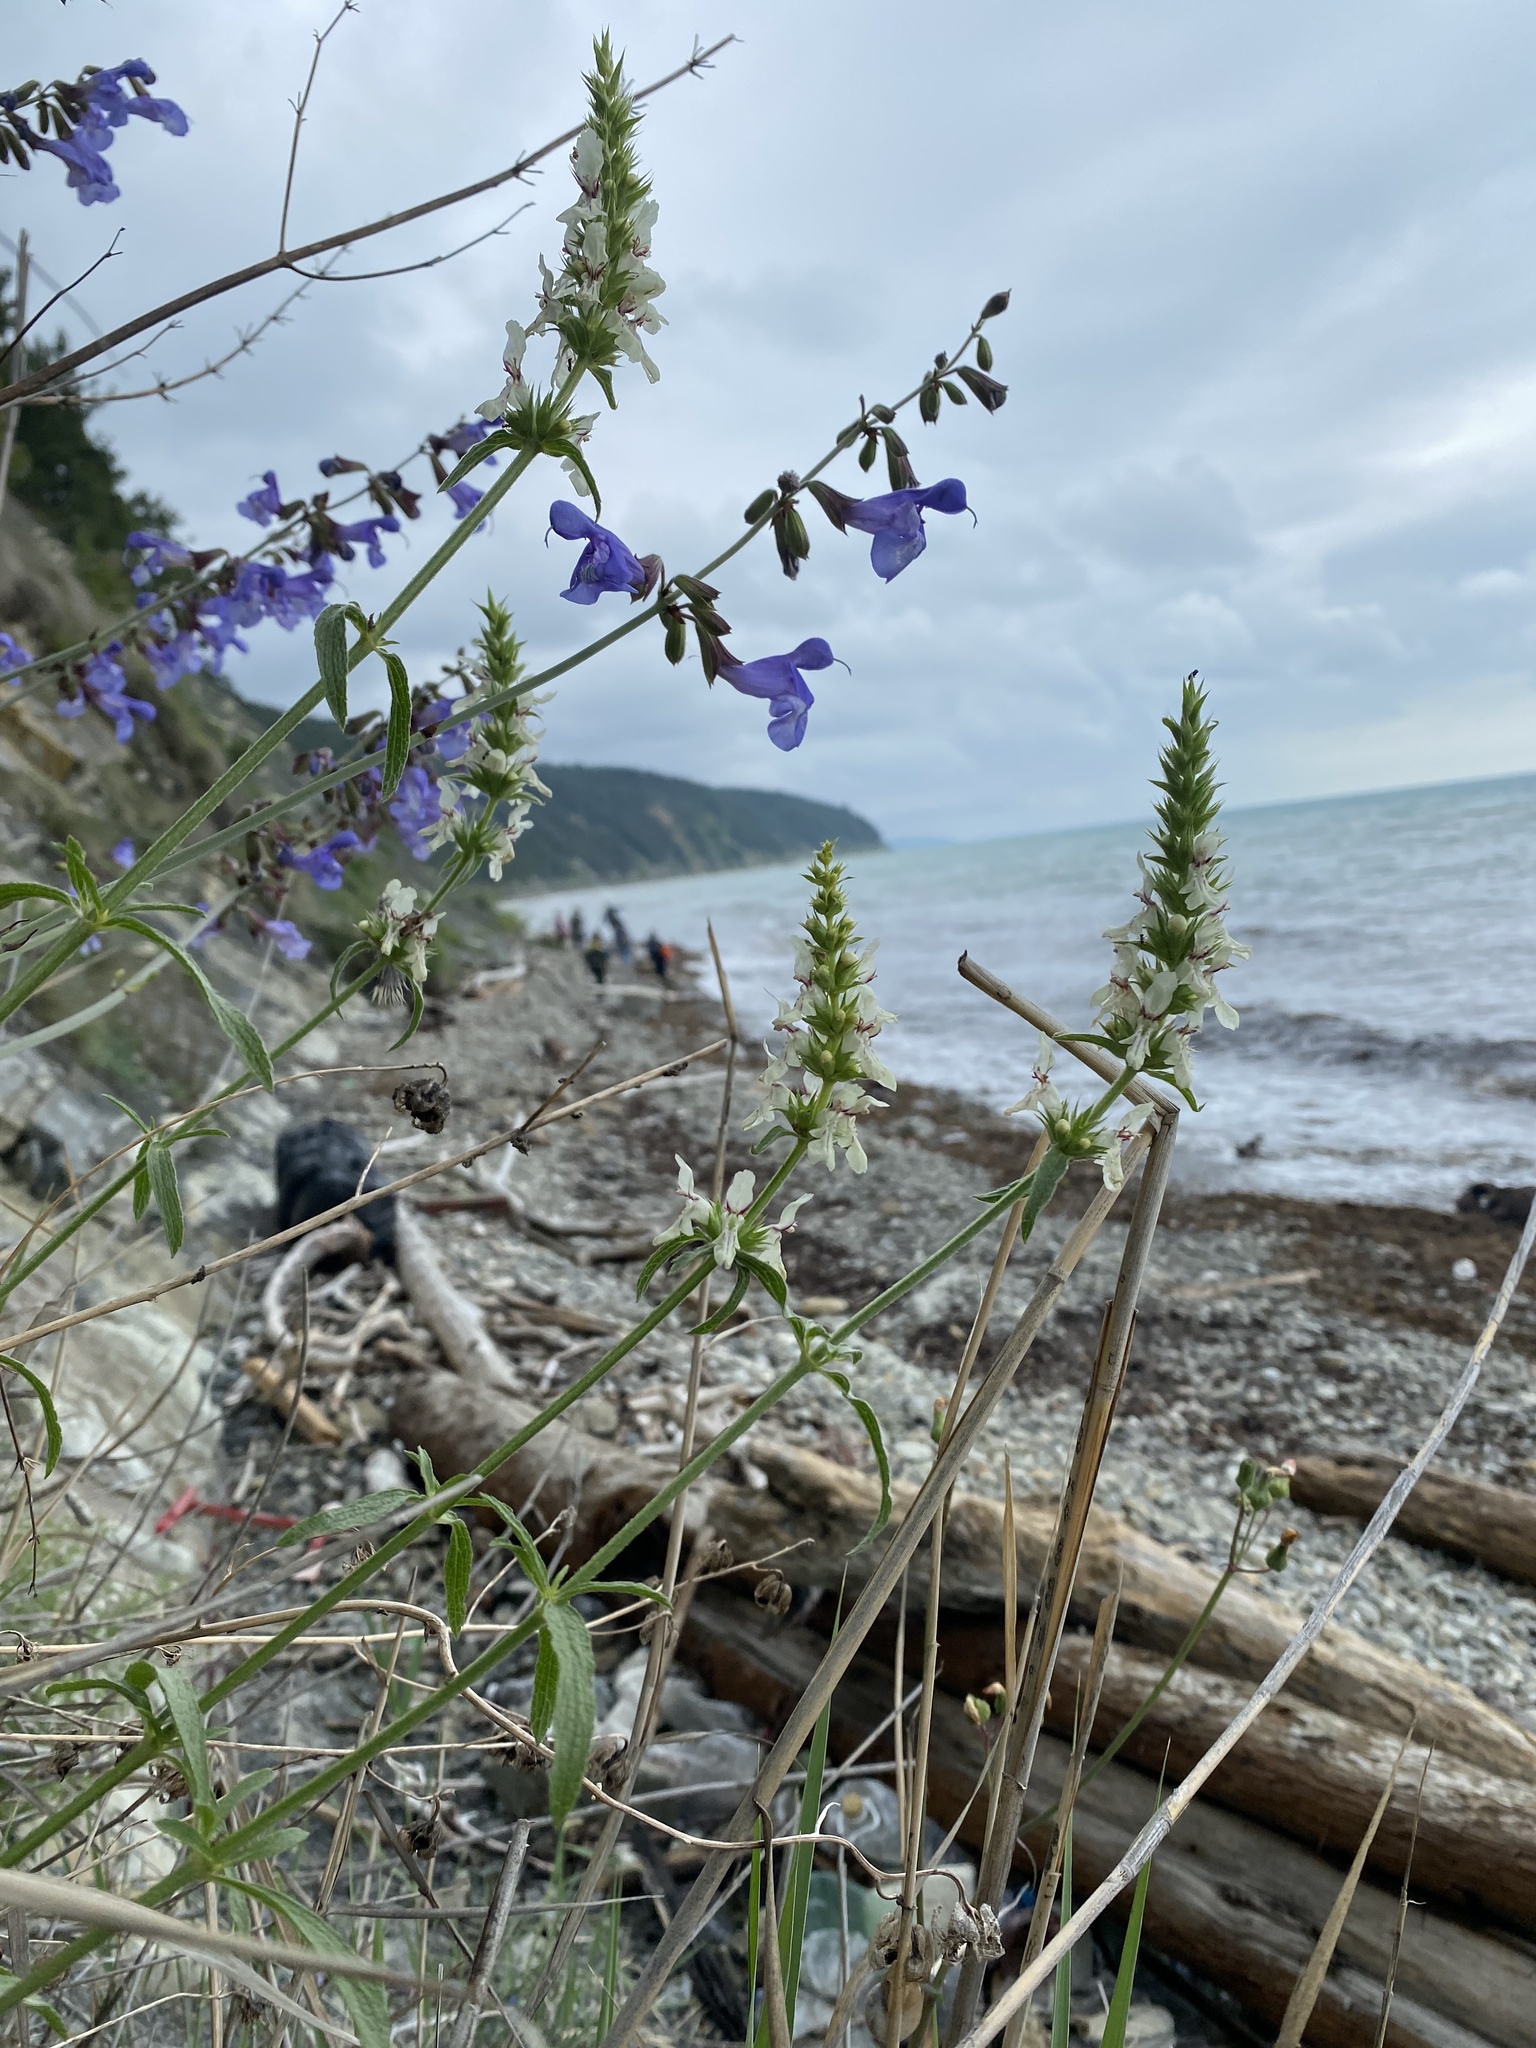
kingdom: Plantae
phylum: Tracheophyta
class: Magnoliopsida
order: Lamiales
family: Lamiaceae
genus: Stachys
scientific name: Stachys atherocalyx
